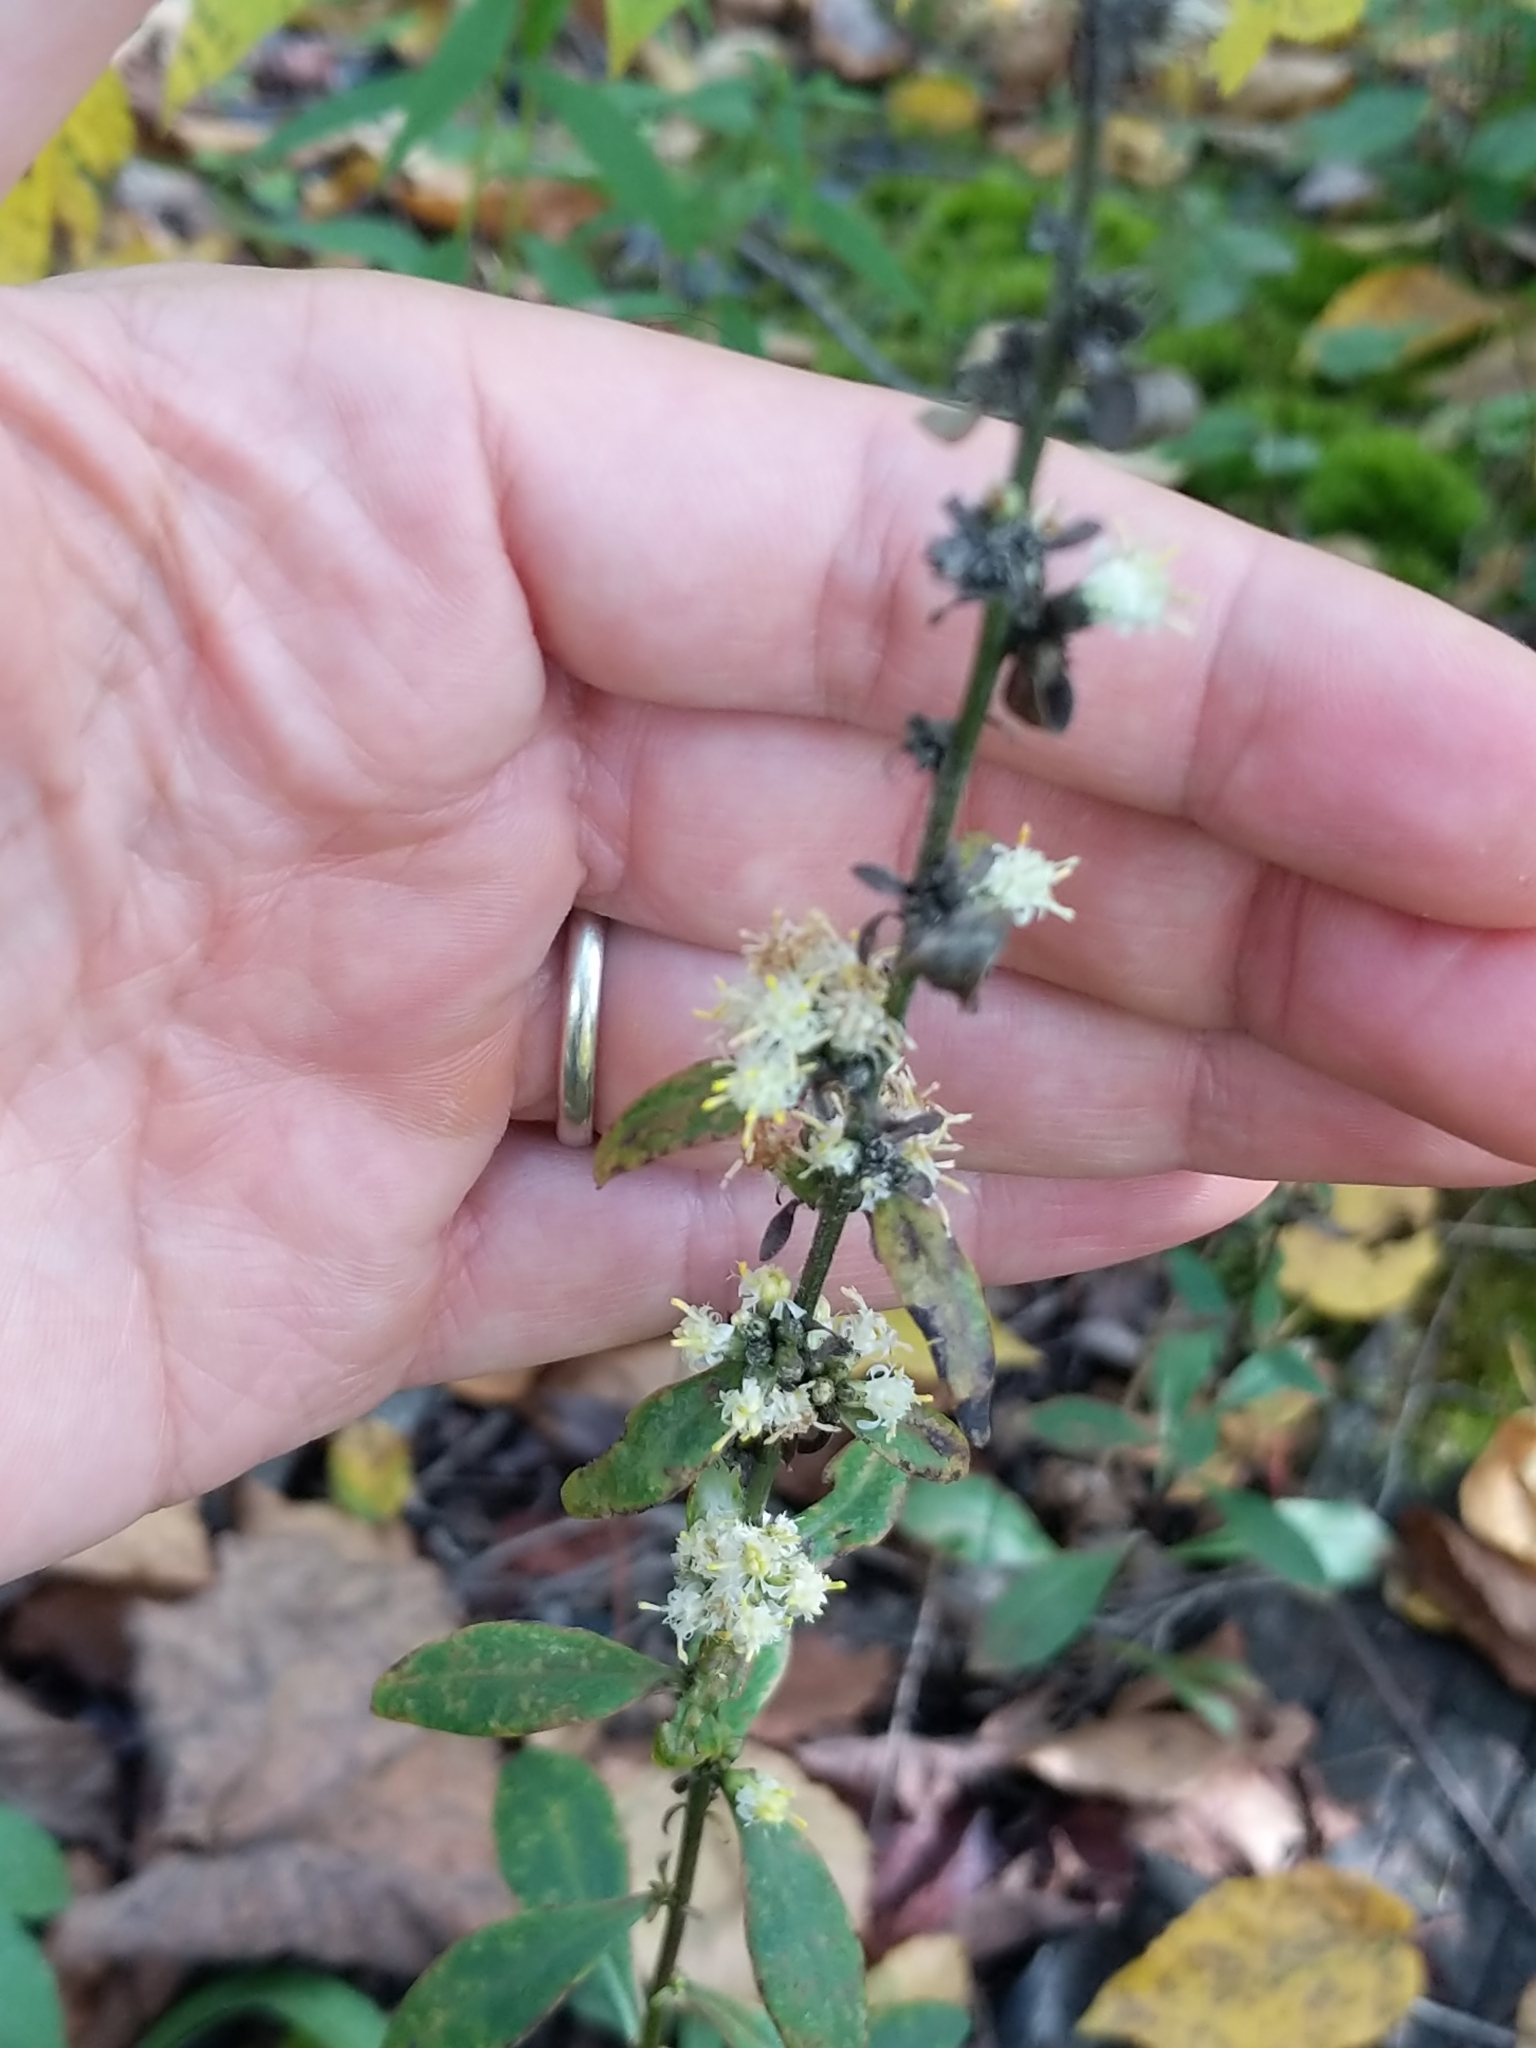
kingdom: Plantae
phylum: Tracheophyta
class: Magnoliopsida
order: Asterales
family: Asteraceae
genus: Solidago
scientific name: Solidago bicolor
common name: Silverrod
